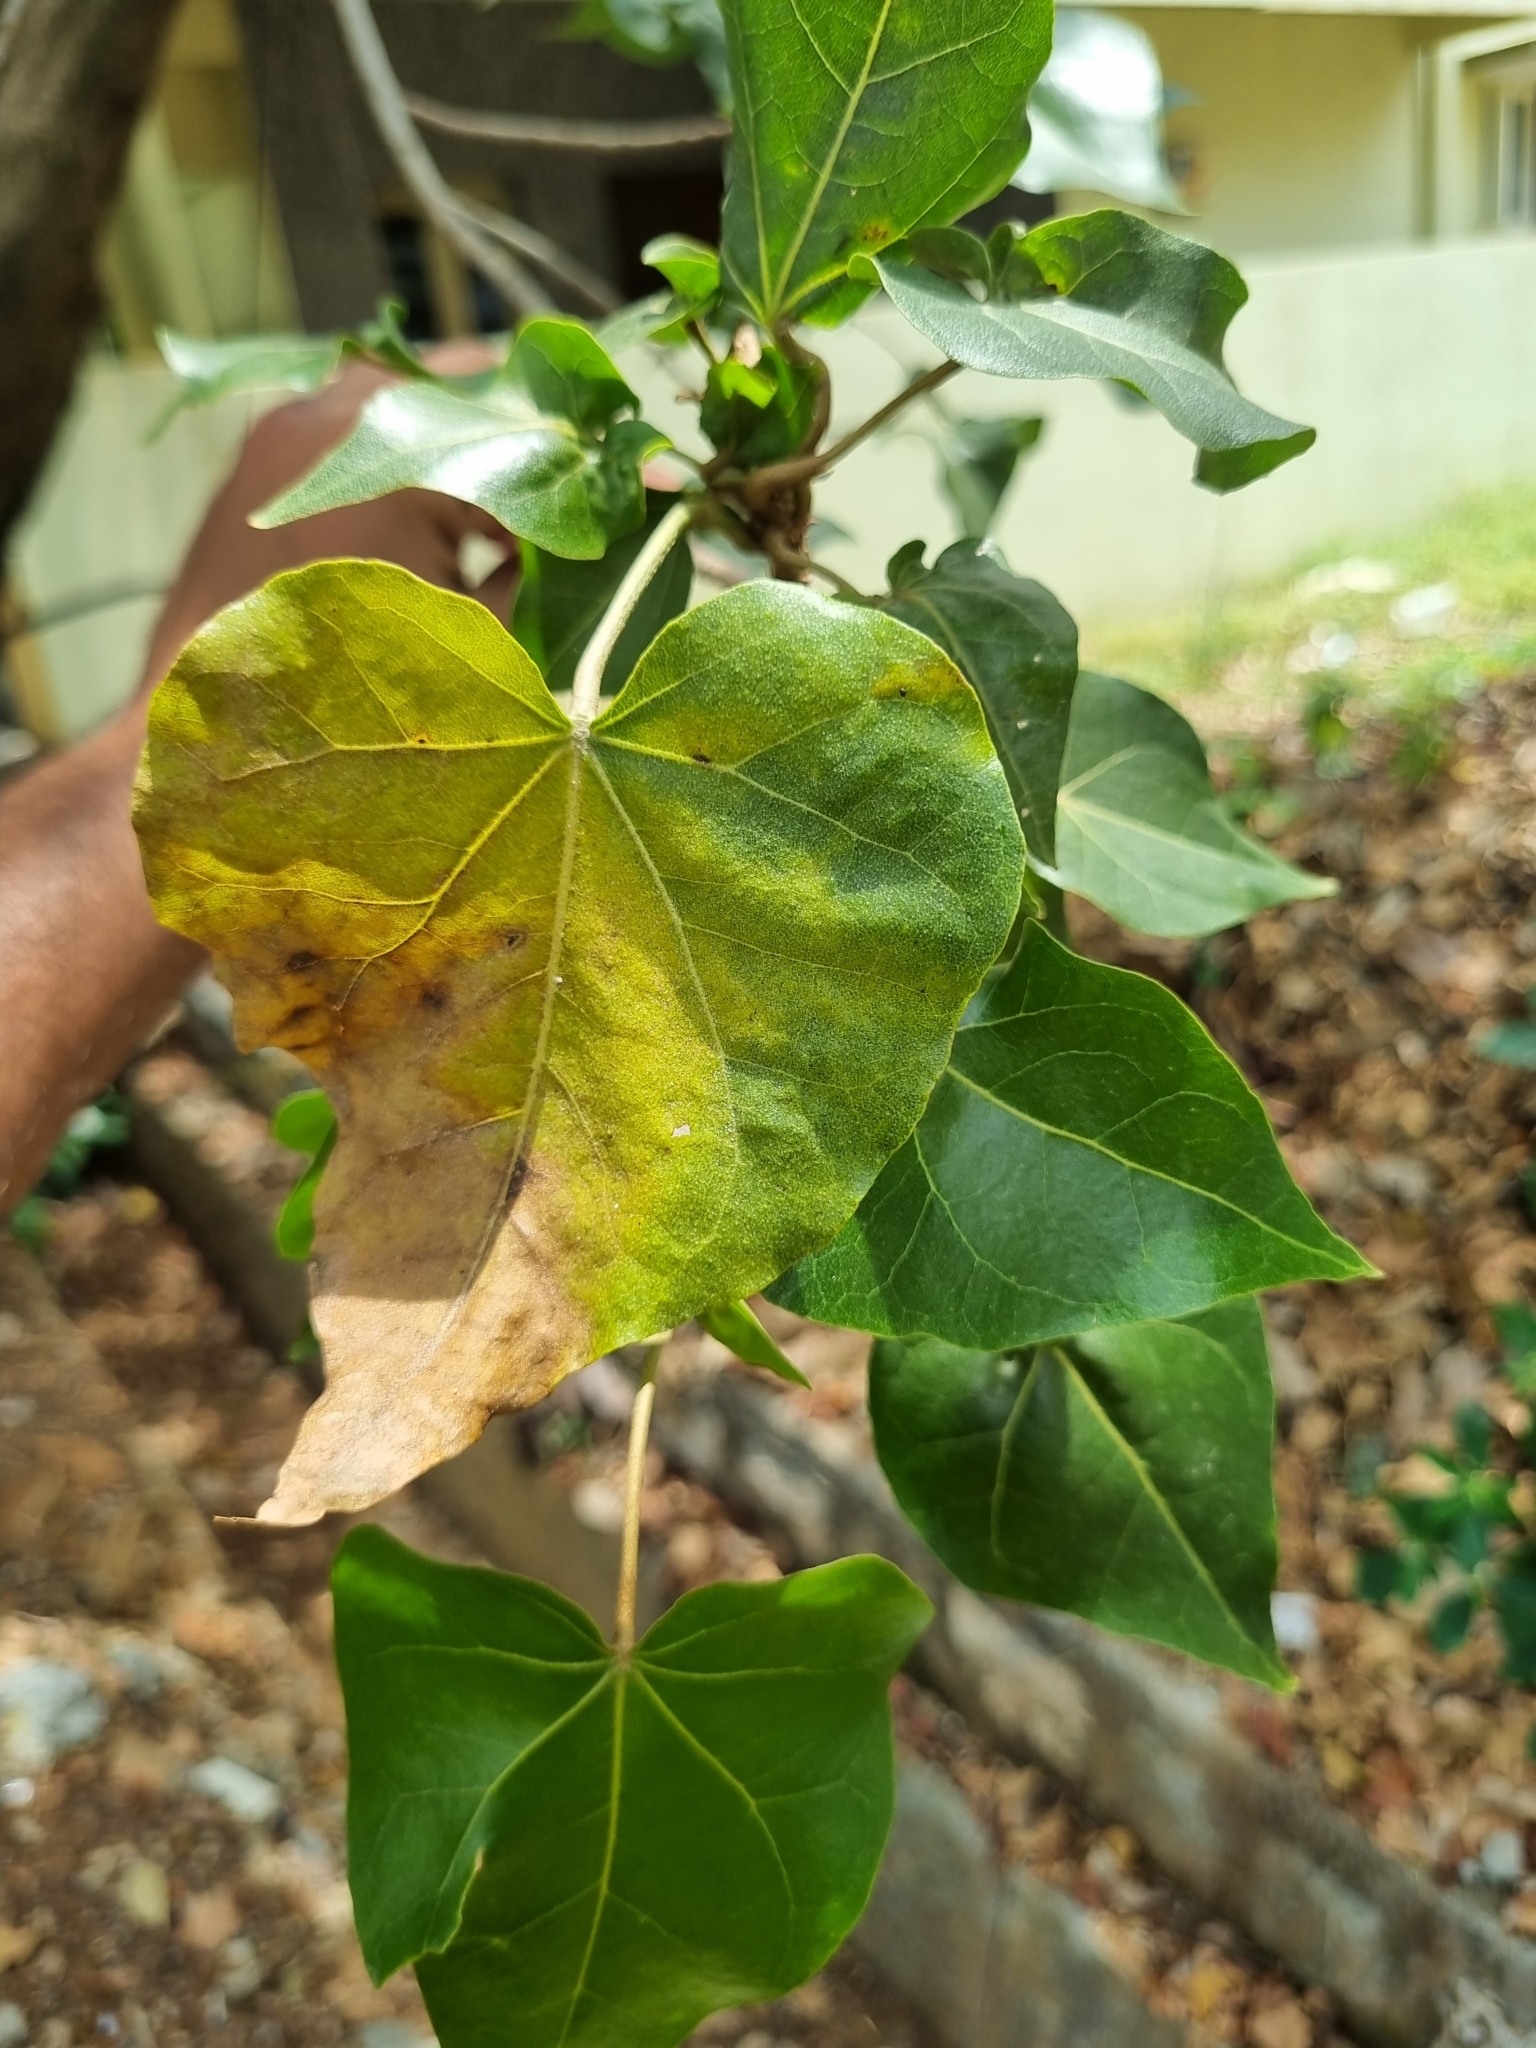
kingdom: Plantae
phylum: Tracheophyta
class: Magnoliopsida
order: Malvales
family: Malvaceae
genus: Thespesia
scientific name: Thespesia populnea
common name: Seaside mahoe
